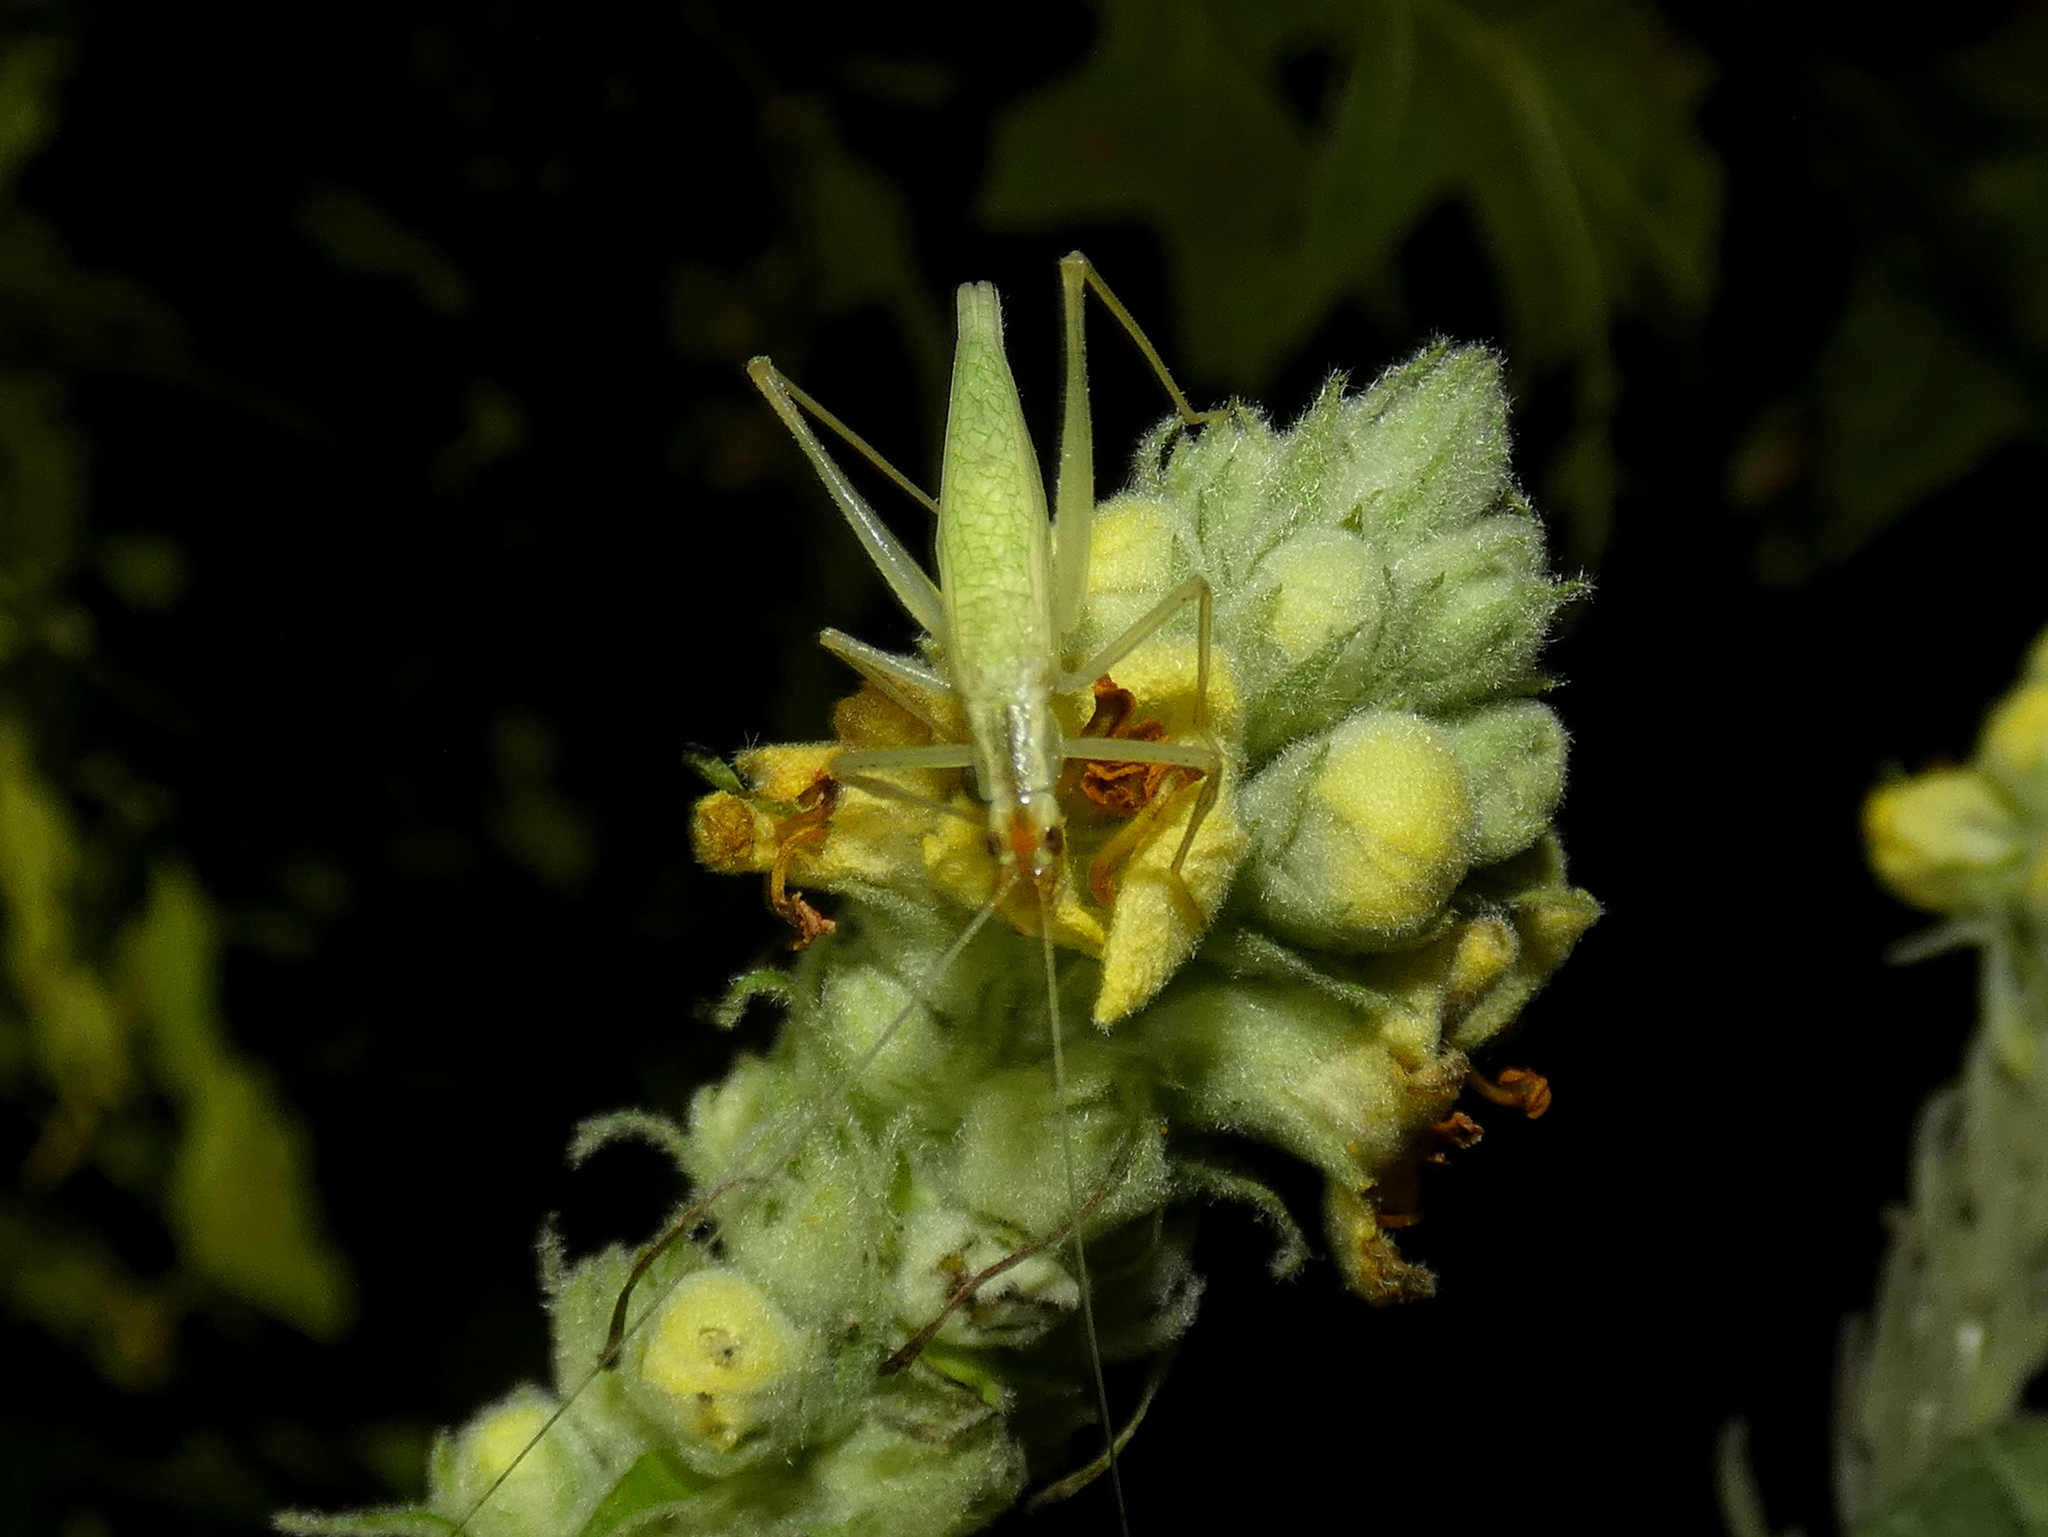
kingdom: Animalia
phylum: Arthropoda
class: Insecta
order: Orthoptera
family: Gryllidae
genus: Oecanthus
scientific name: Oecanthus niveus
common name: Narrow-winged tree cricket
